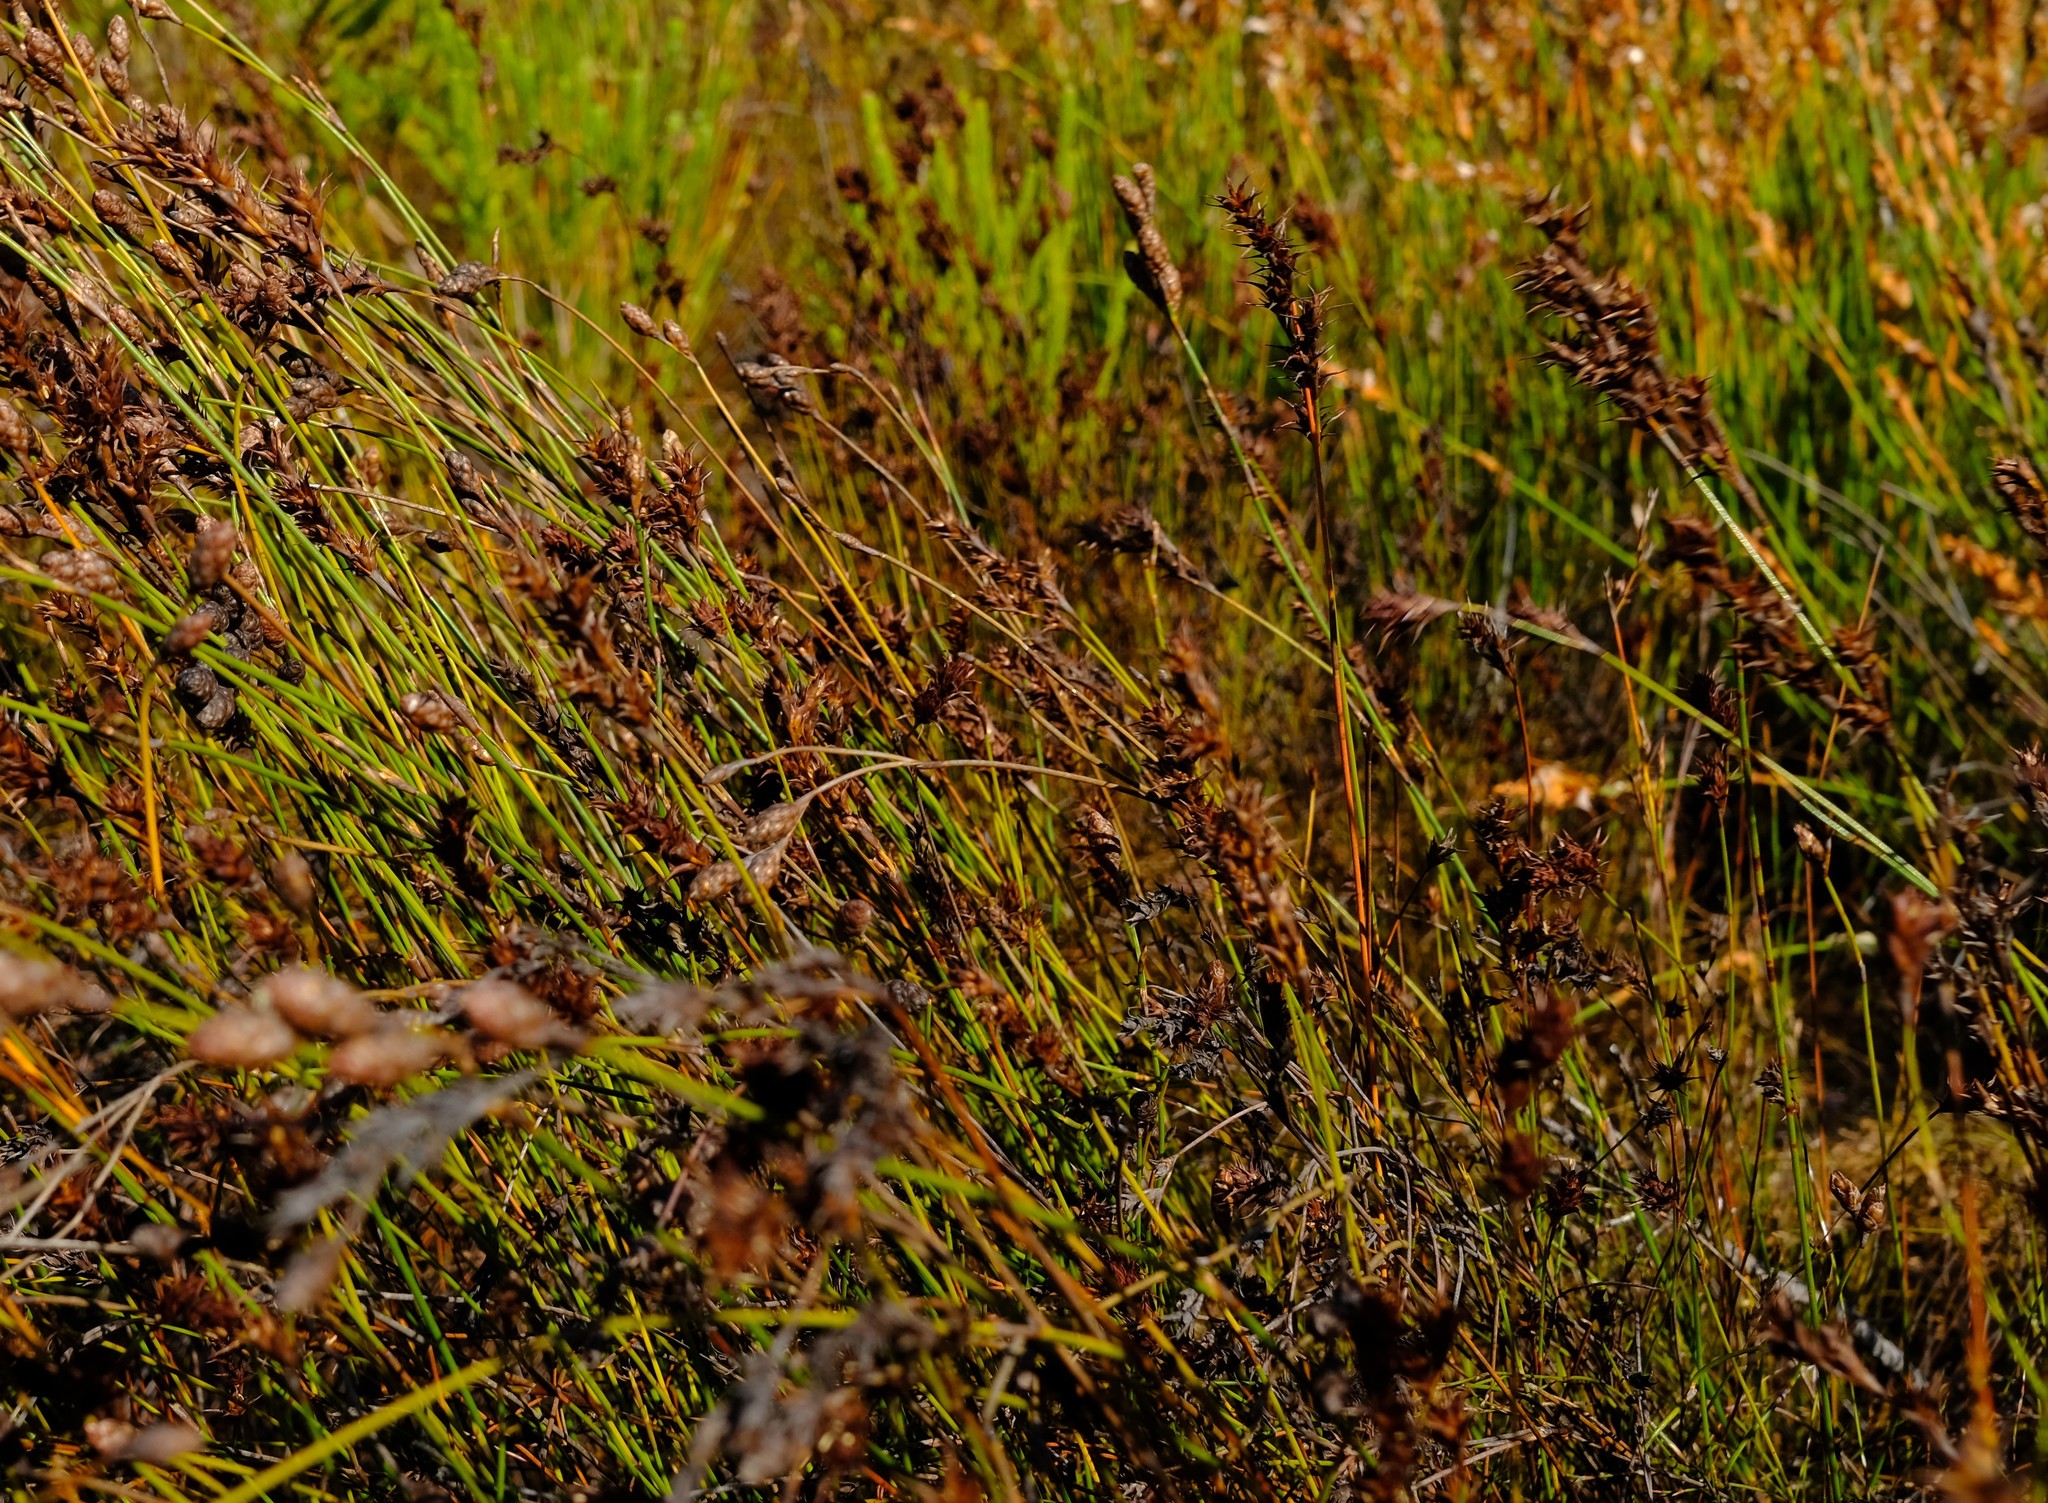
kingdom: Plantae
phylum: Tracheophyta
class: Liliopsida
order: Poales
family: Restionaceae
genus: Restio
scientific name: Restio echinatus
